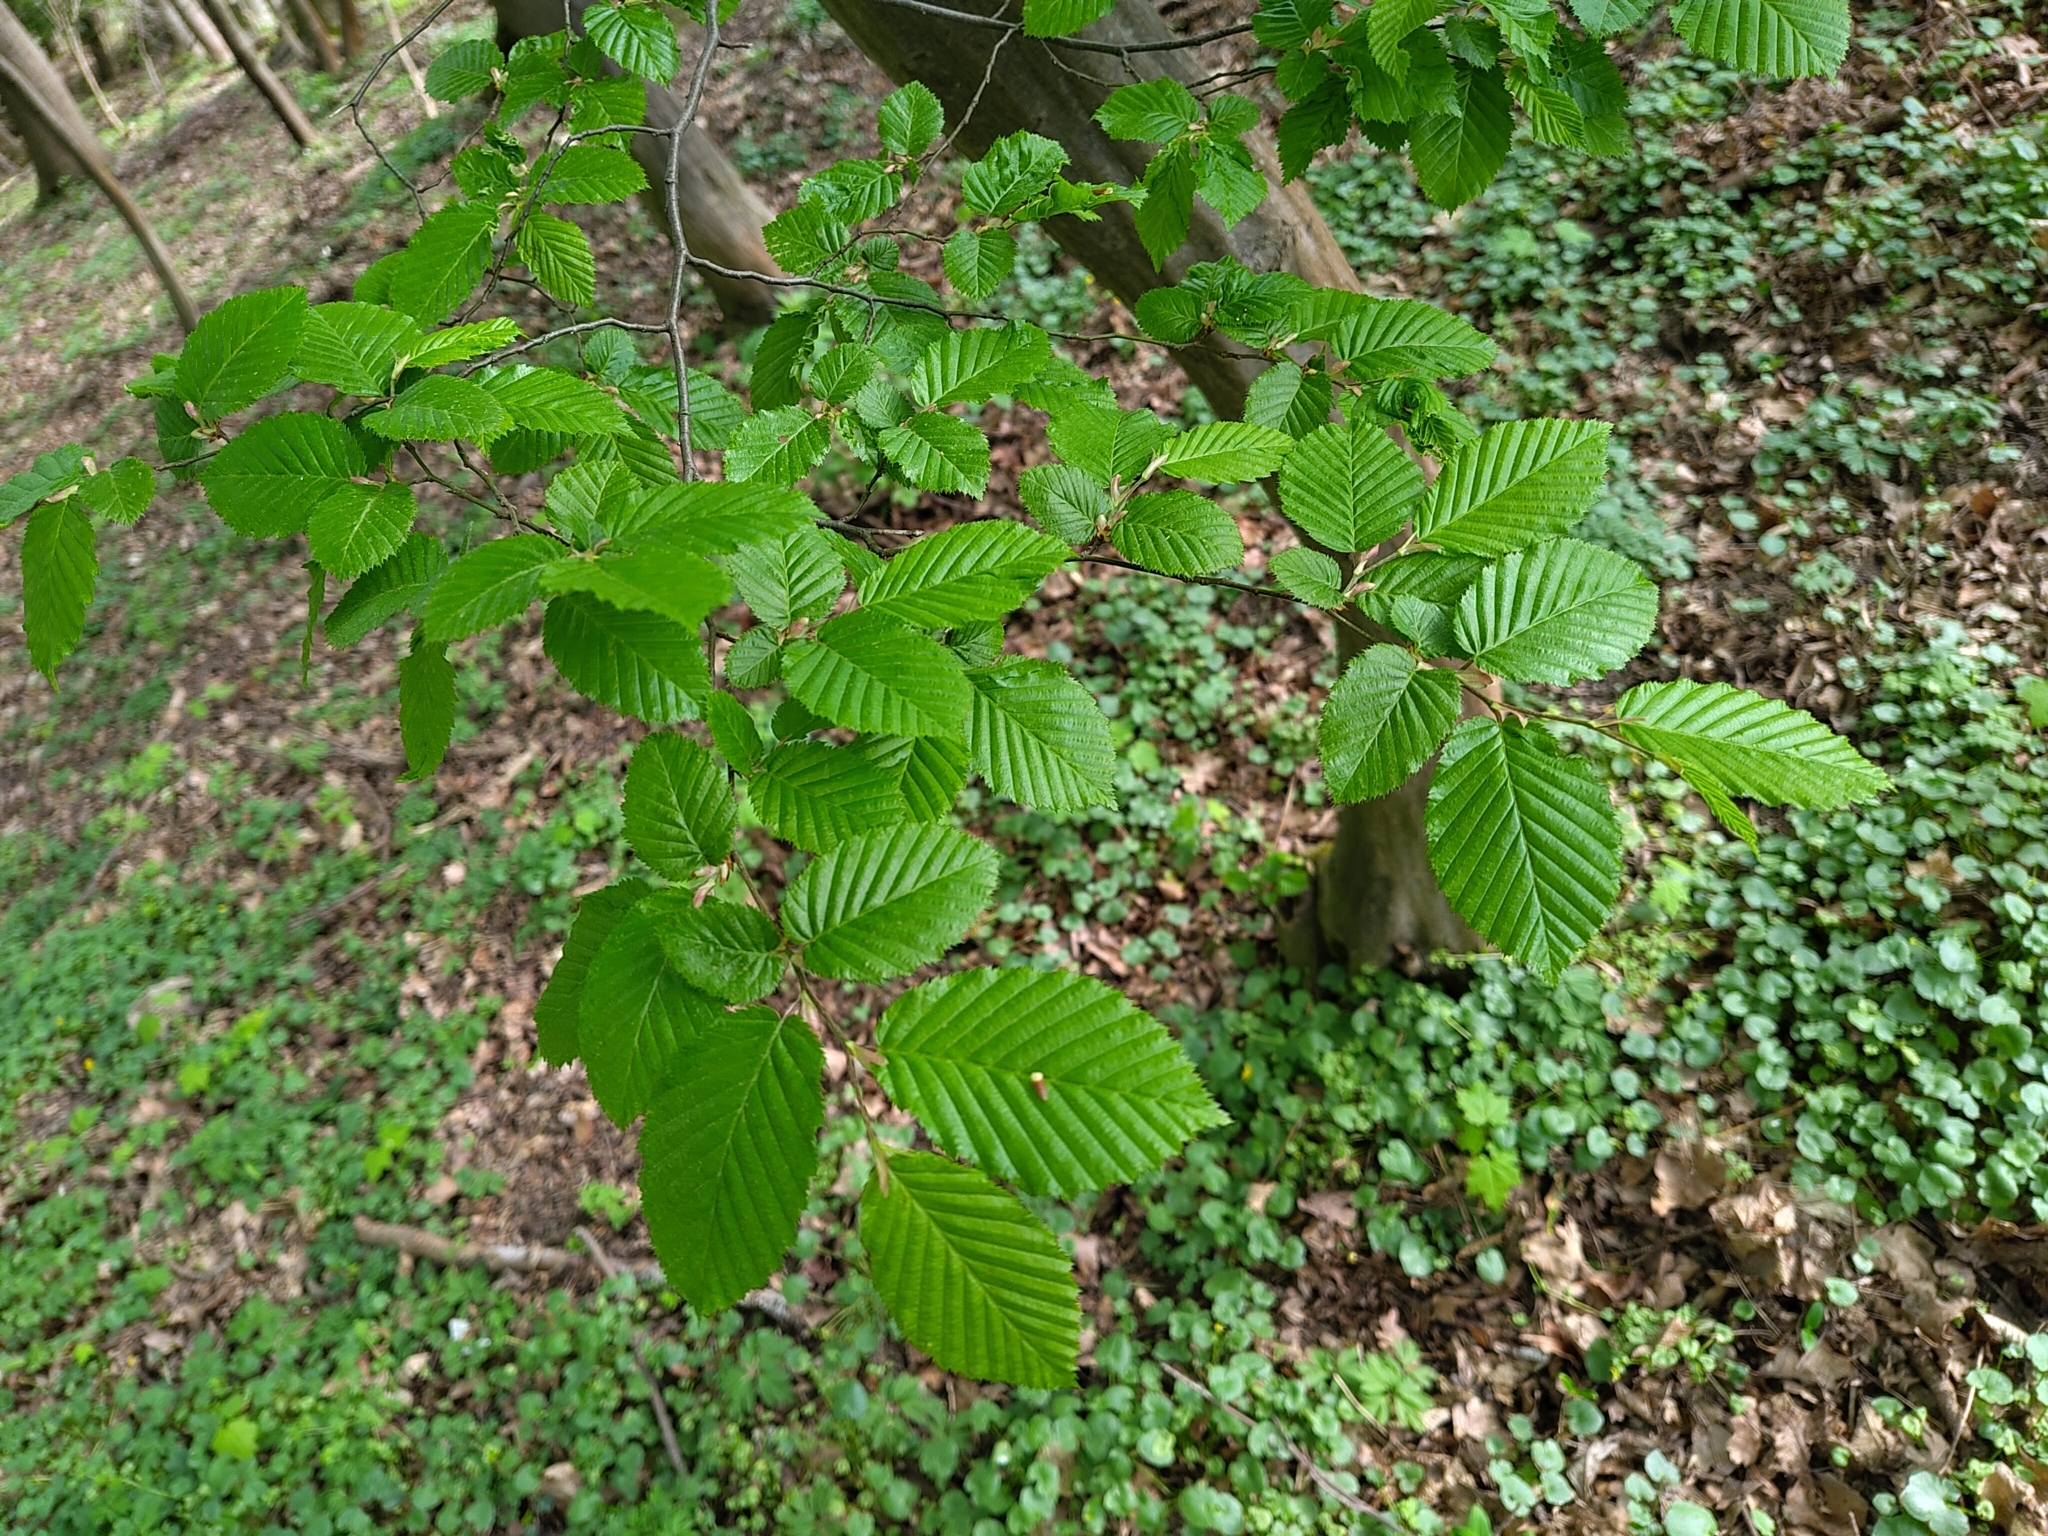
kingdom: Plantae
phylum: Tracheophyta
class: Magnoliopsida
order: Fagales
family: Betulaceae
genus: Carpinus
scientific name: Carpinus betulus
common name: Hornbeam
